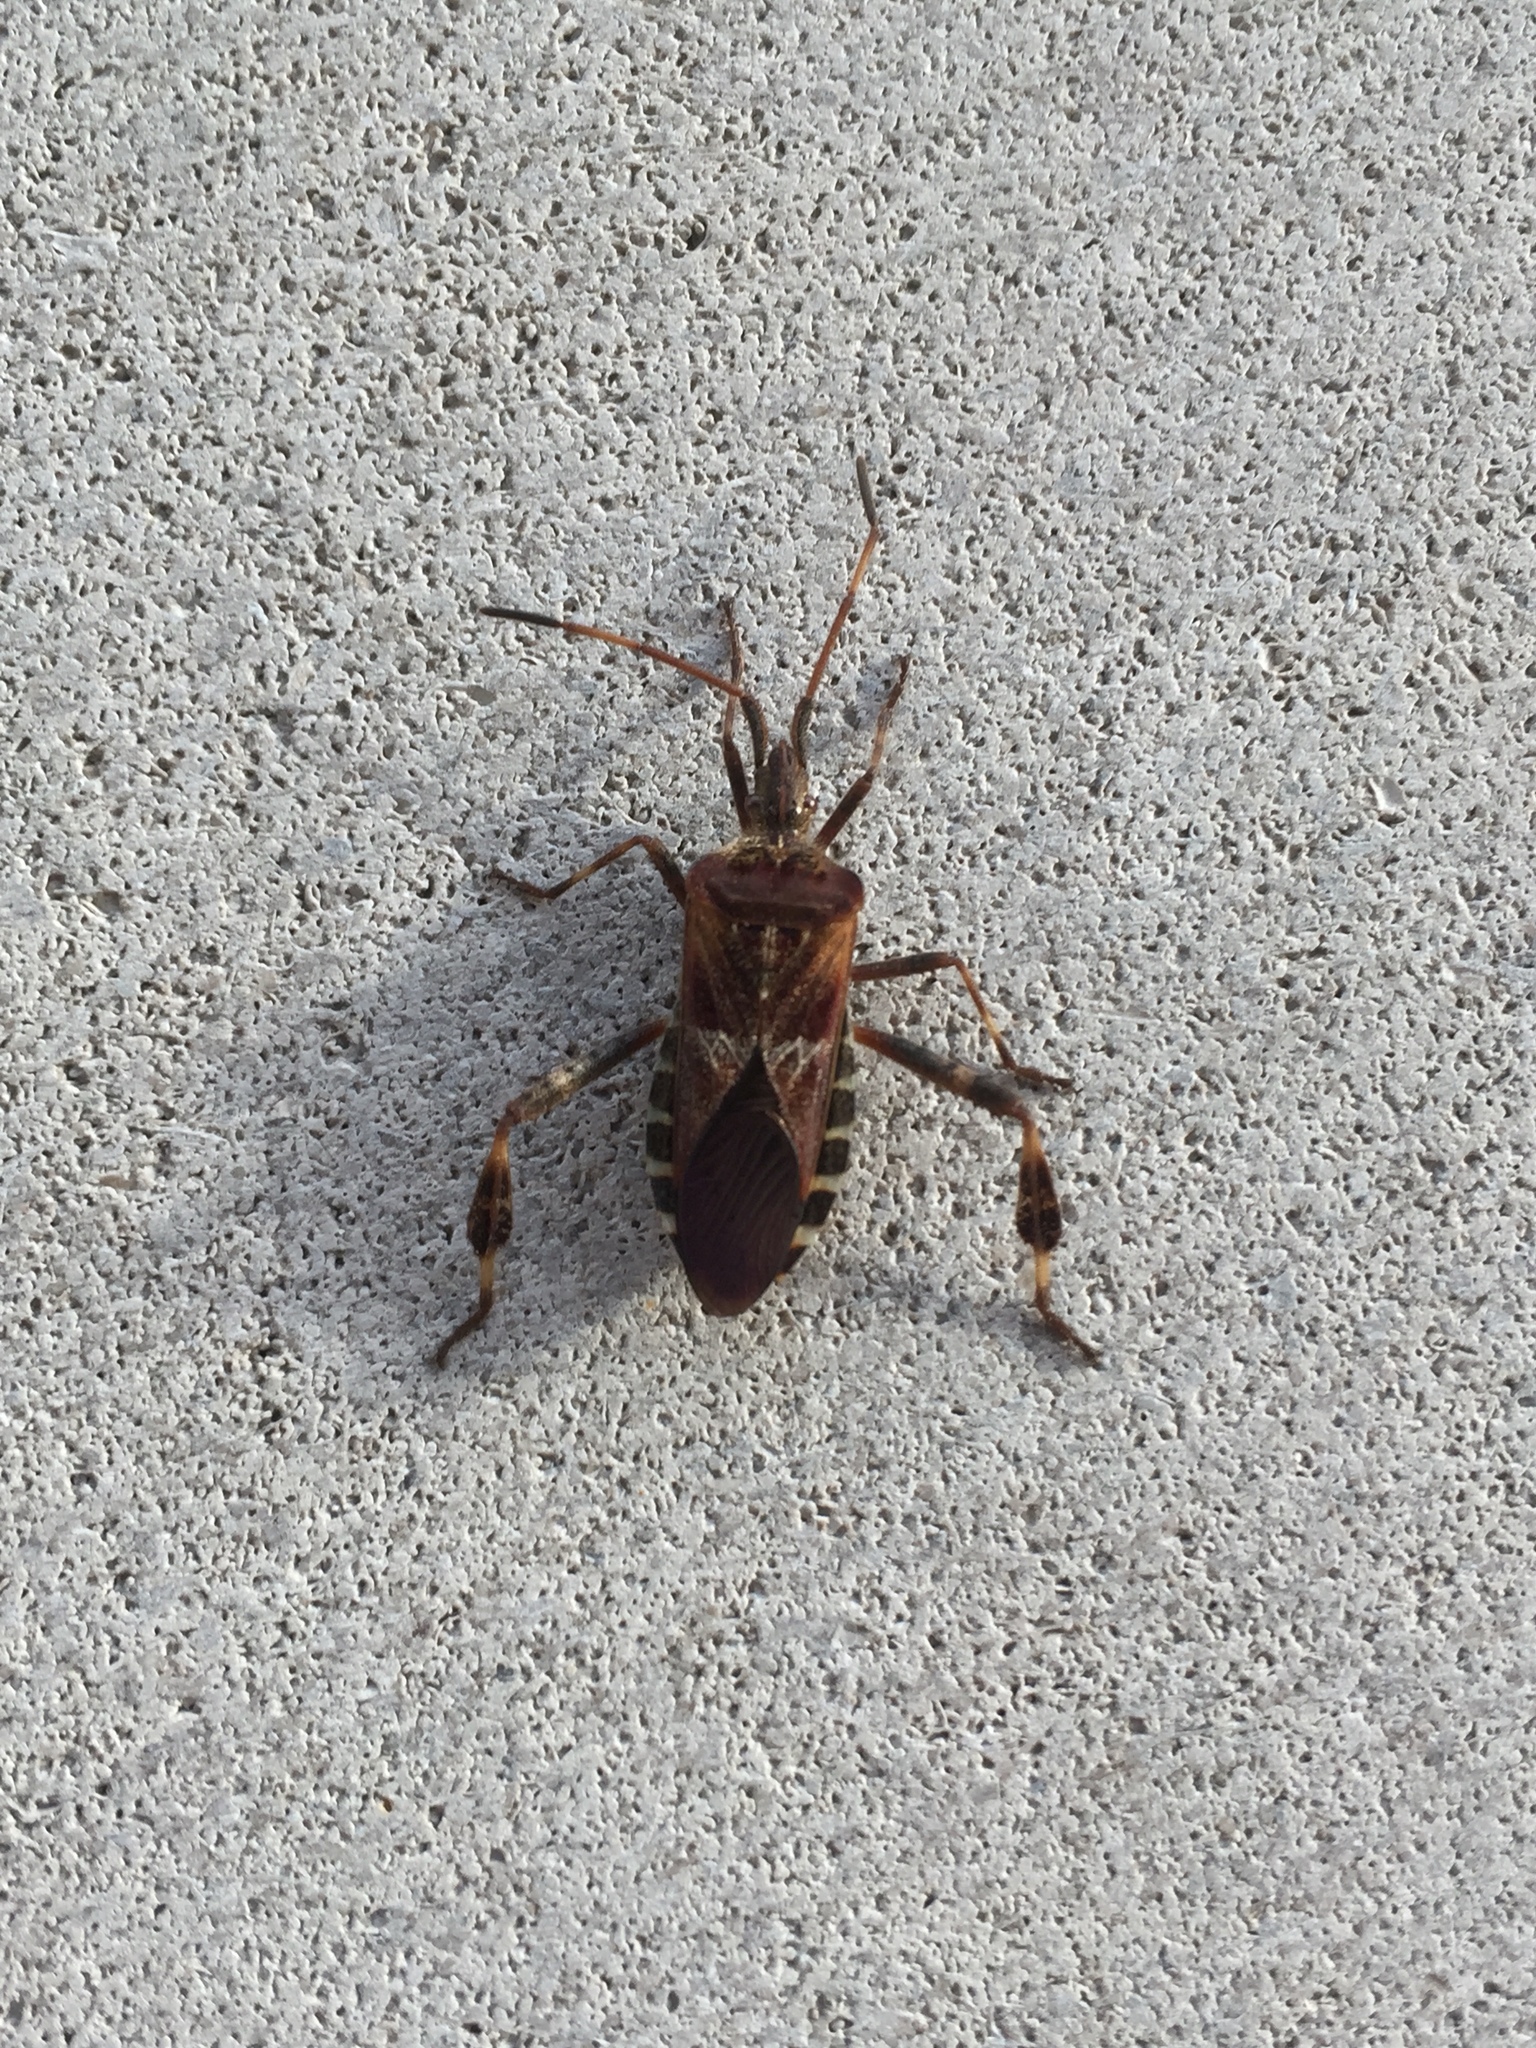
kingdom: Animalia
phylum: Arthropoda
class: Insecta
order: Hemiptera
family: Coreidae
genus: Leptoglossus
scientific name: Leptoglossus occidentalis
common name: Western conifer-seed bug
